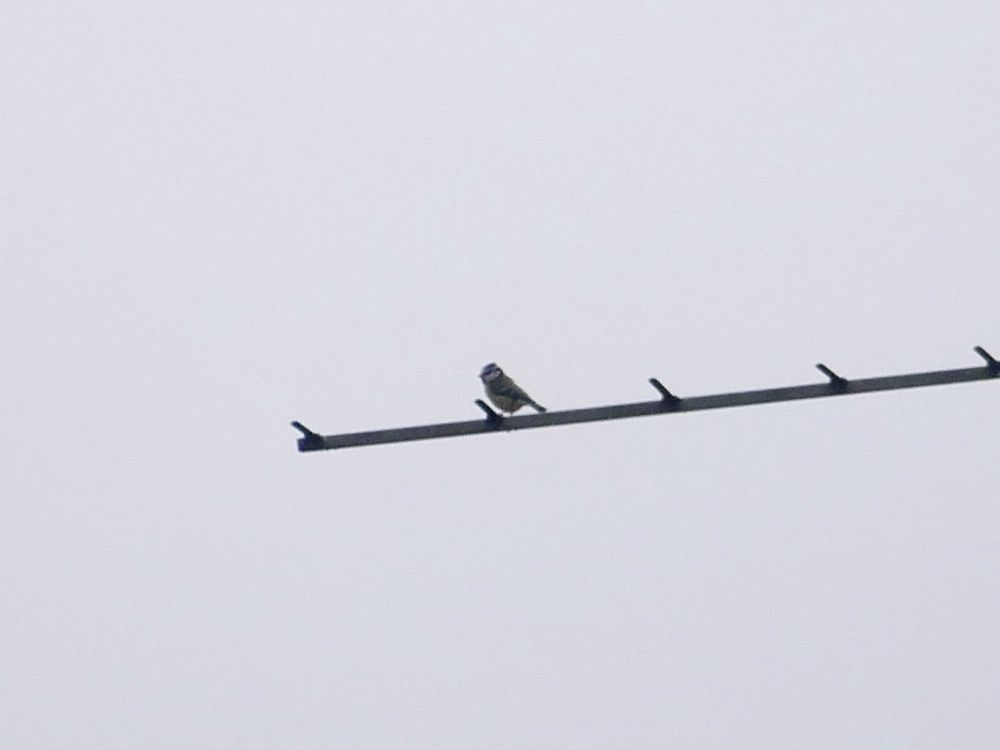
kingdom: Animalia
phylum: Chordata
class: Aves
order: Passeriformes
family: Paridae
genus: Cyanistes
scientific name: Cyanistes caeruleus
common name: Eurasian blue tit
